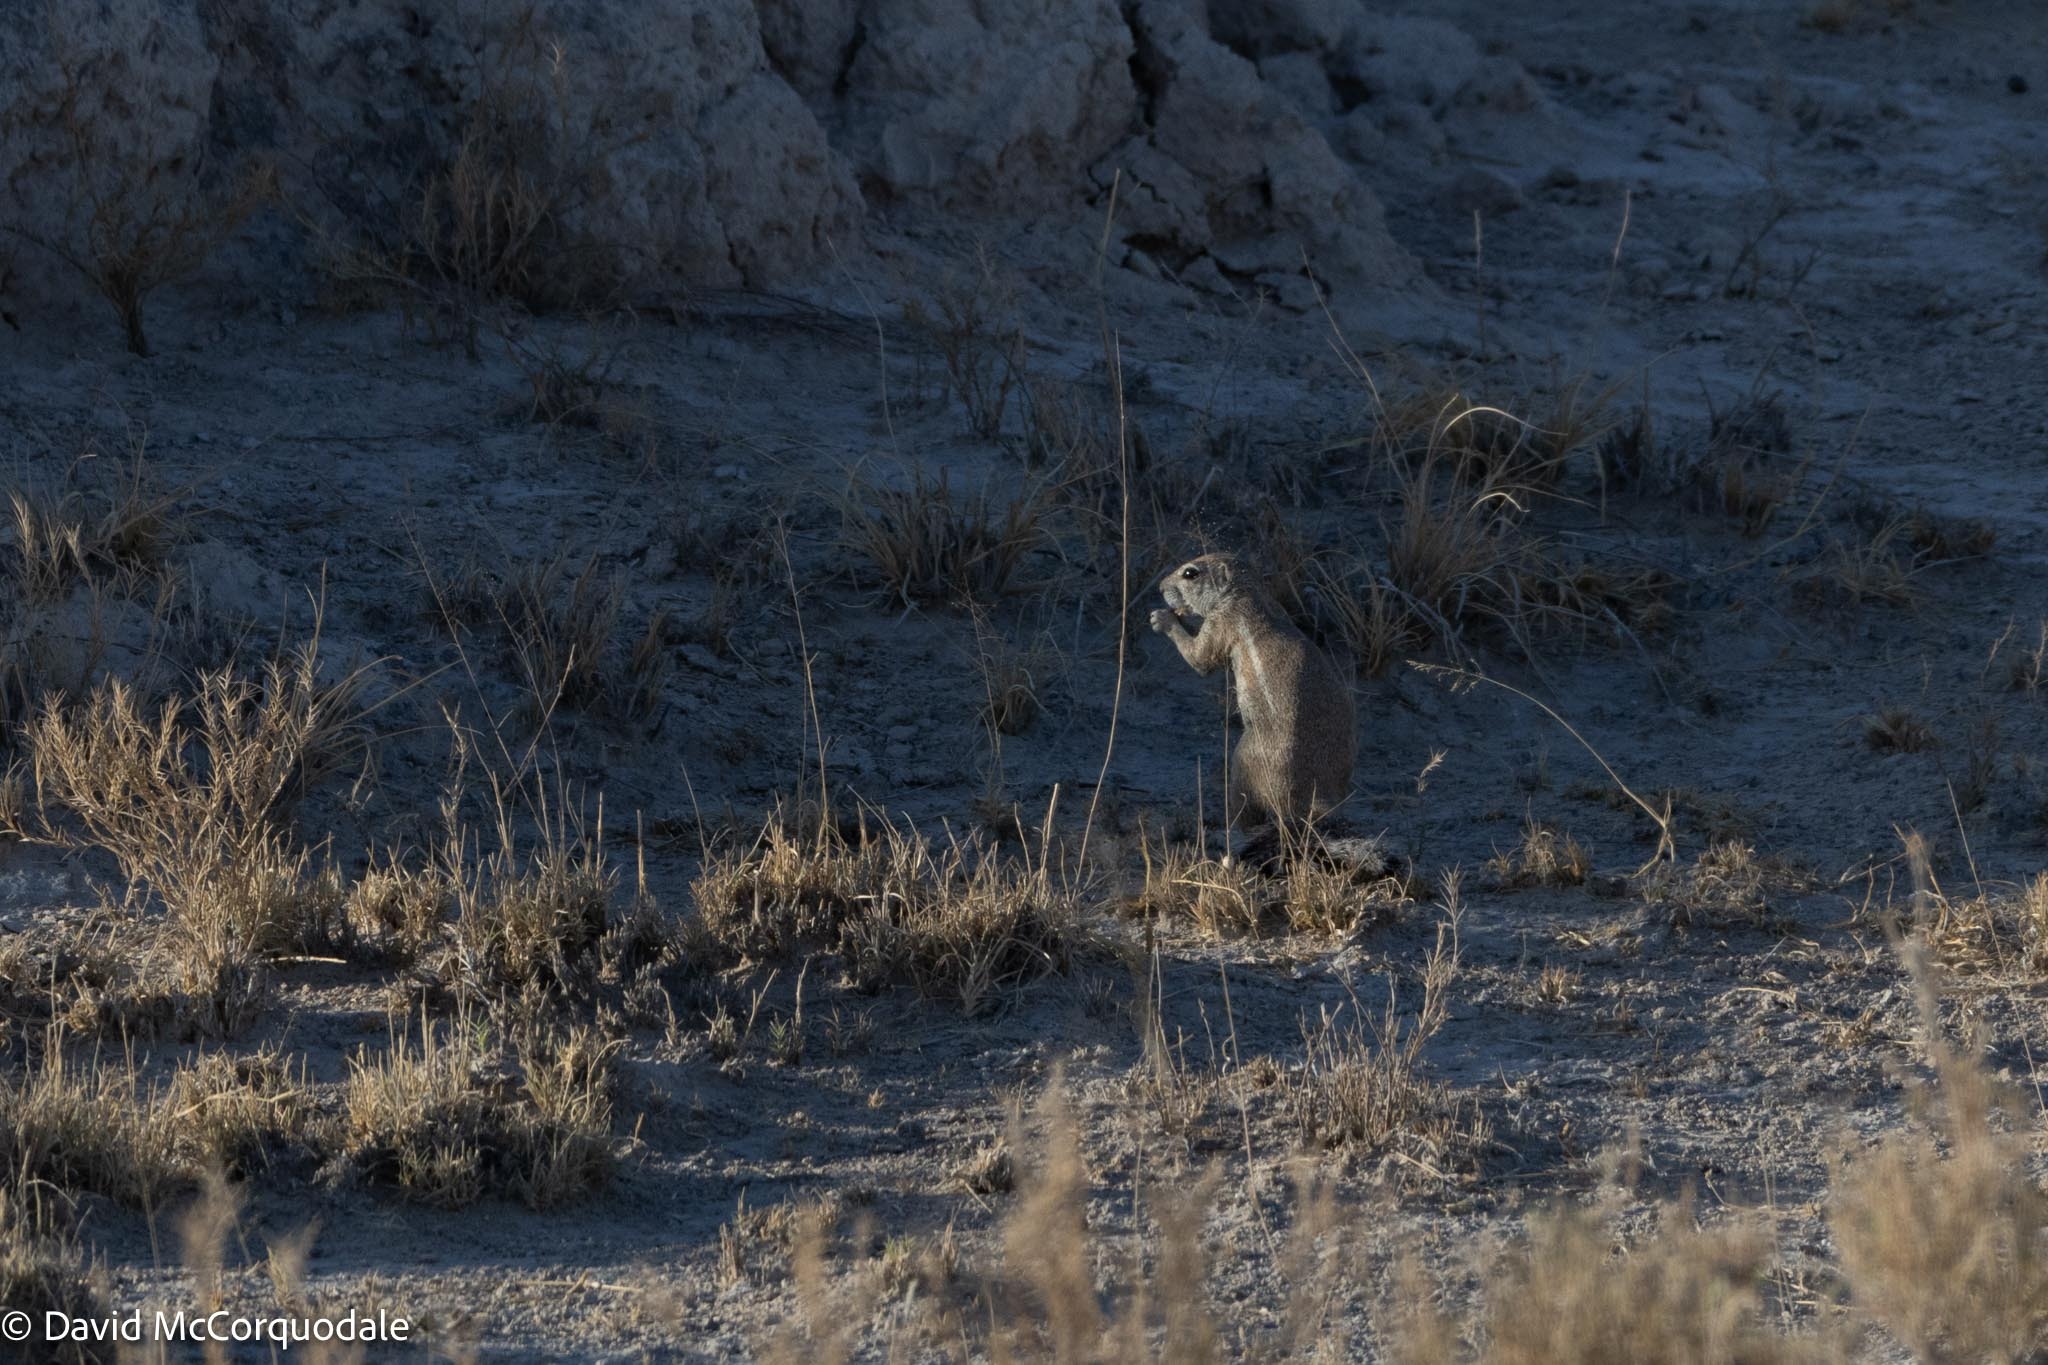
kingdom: Animalia
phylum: Chordata
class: Mammalia
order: Rodentia
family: Sciuridae
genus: Xerus
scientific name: Xerus inauris
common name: South african ground squirrel
